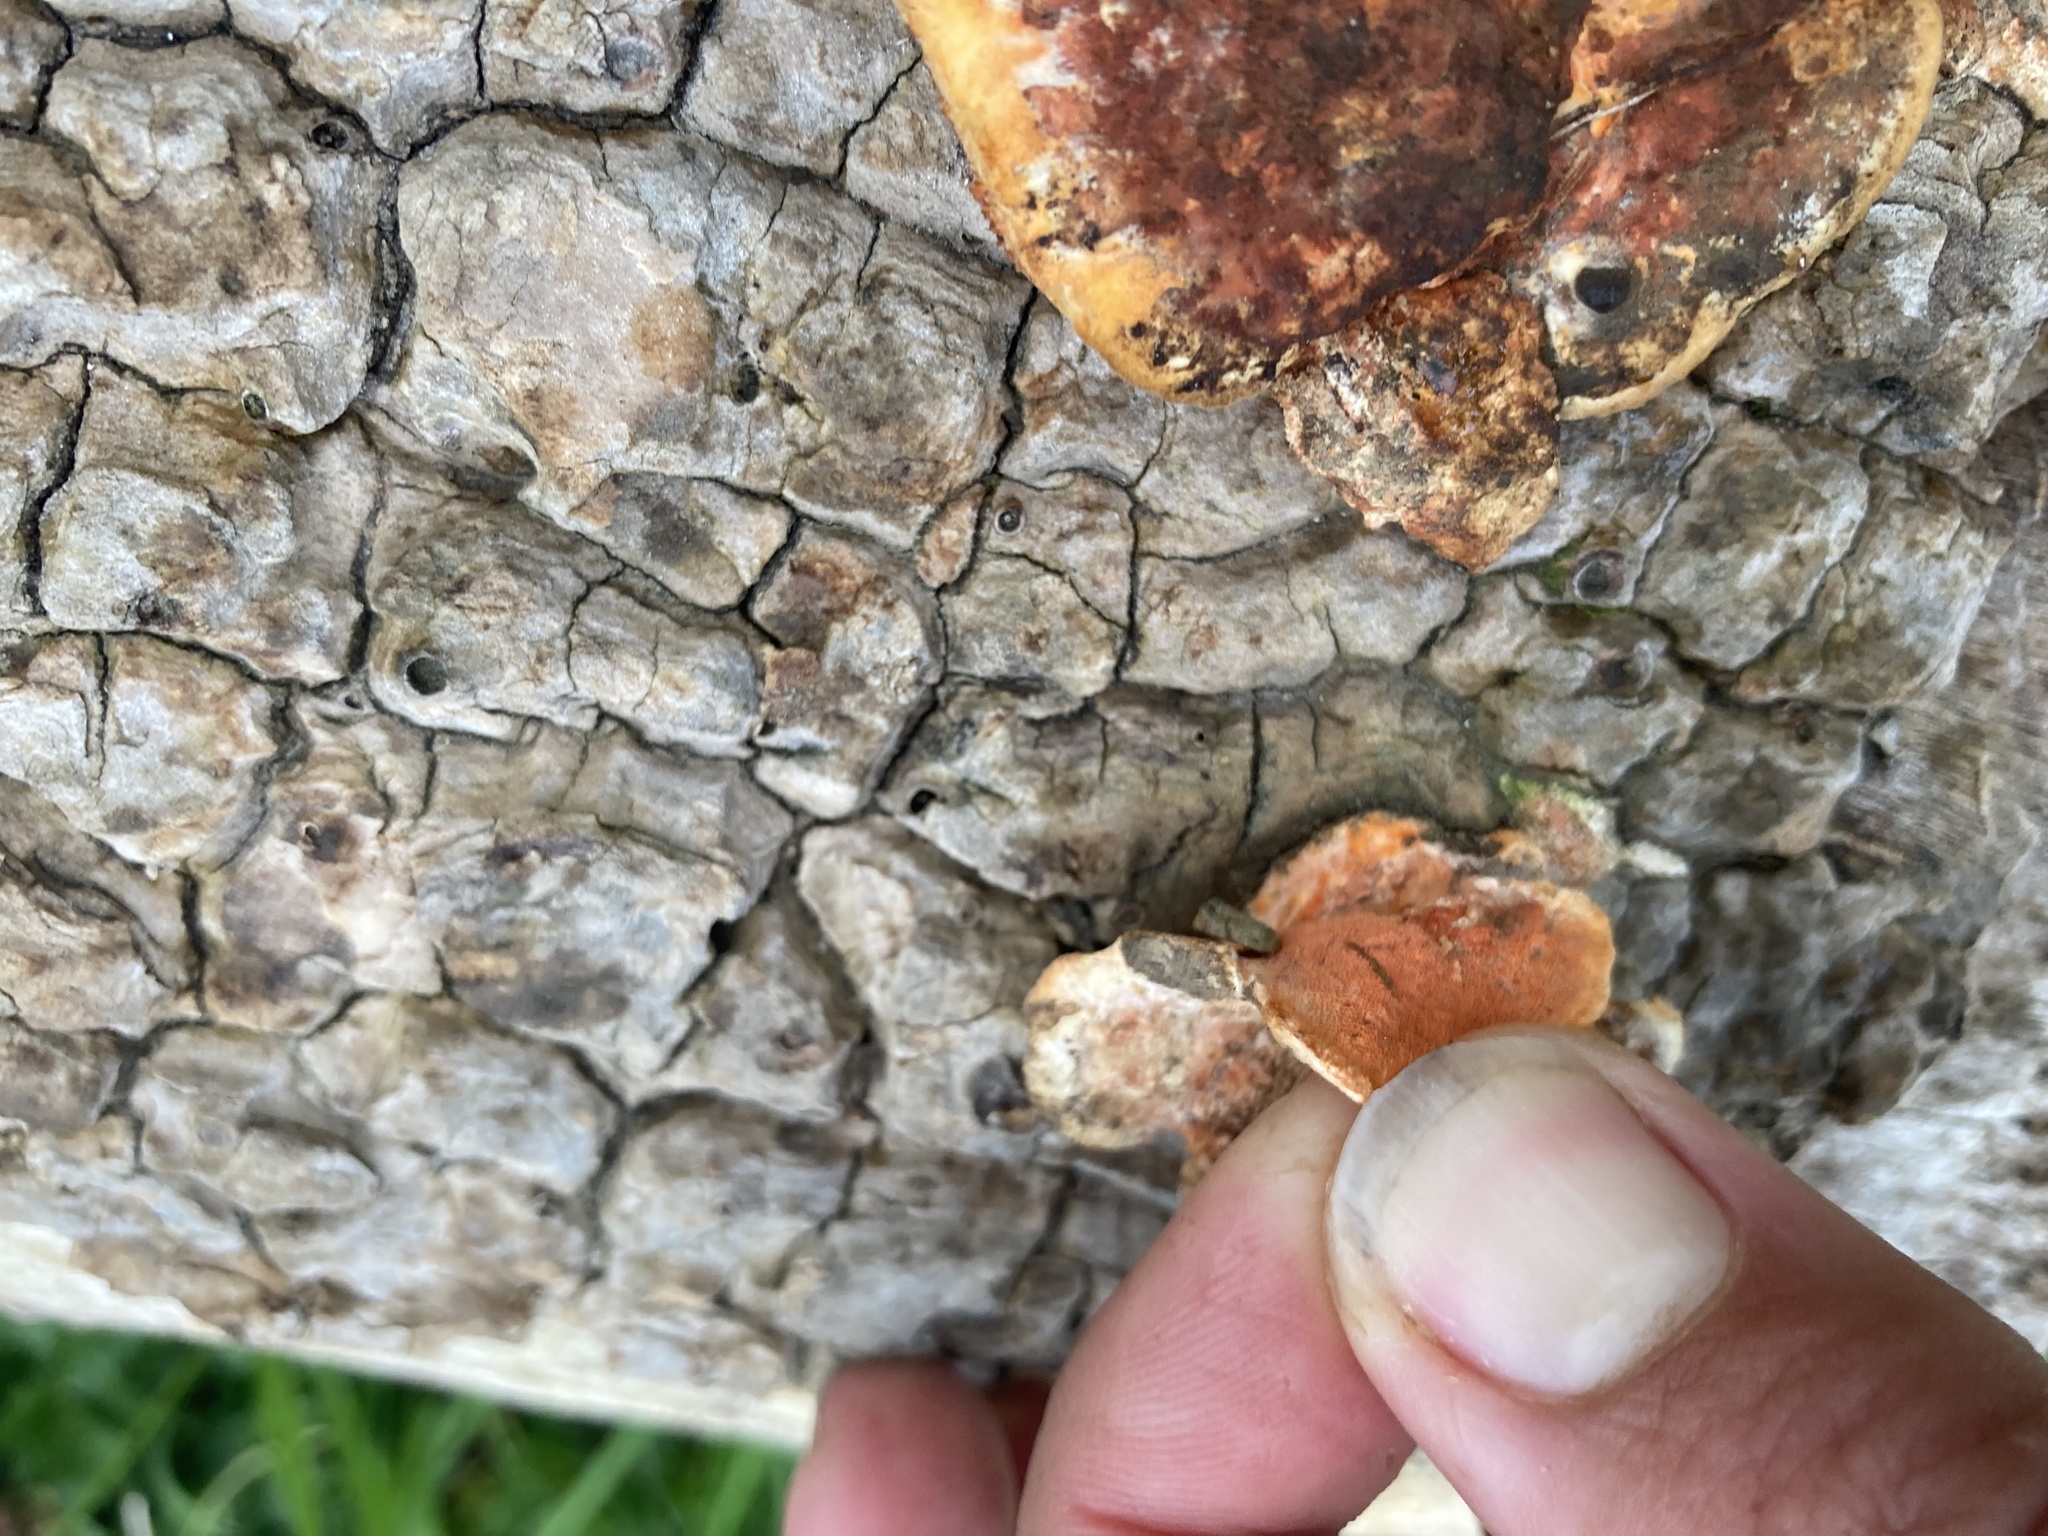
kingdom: Fungi
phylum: Basidiomycota
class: Agaricomycetes
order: Polyporales
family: Polyporaceae
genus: Trametes
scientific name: Trametes coccinea
